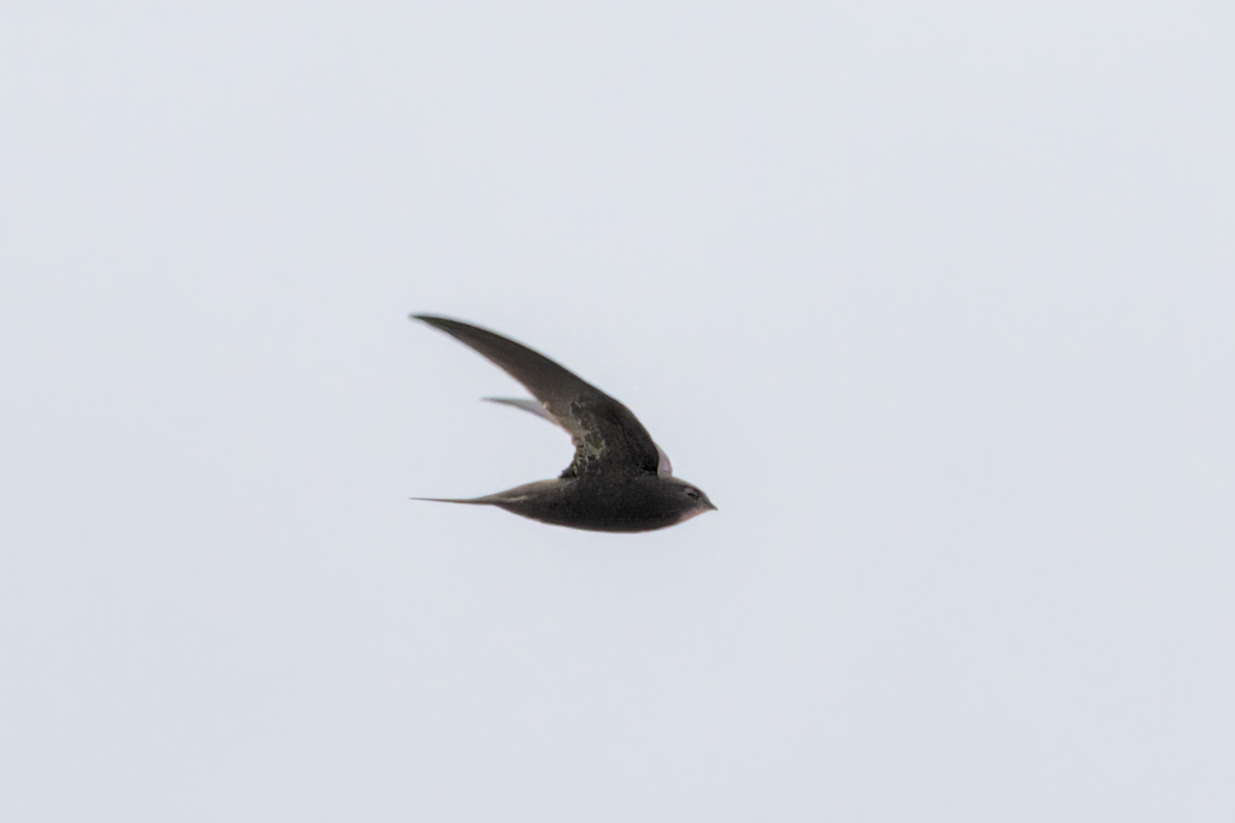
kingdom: Animalia
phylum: Chordata
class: Aves
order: Apodiformes
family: Apodidae
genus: Apus
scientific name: Apus apus
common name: Common swift
